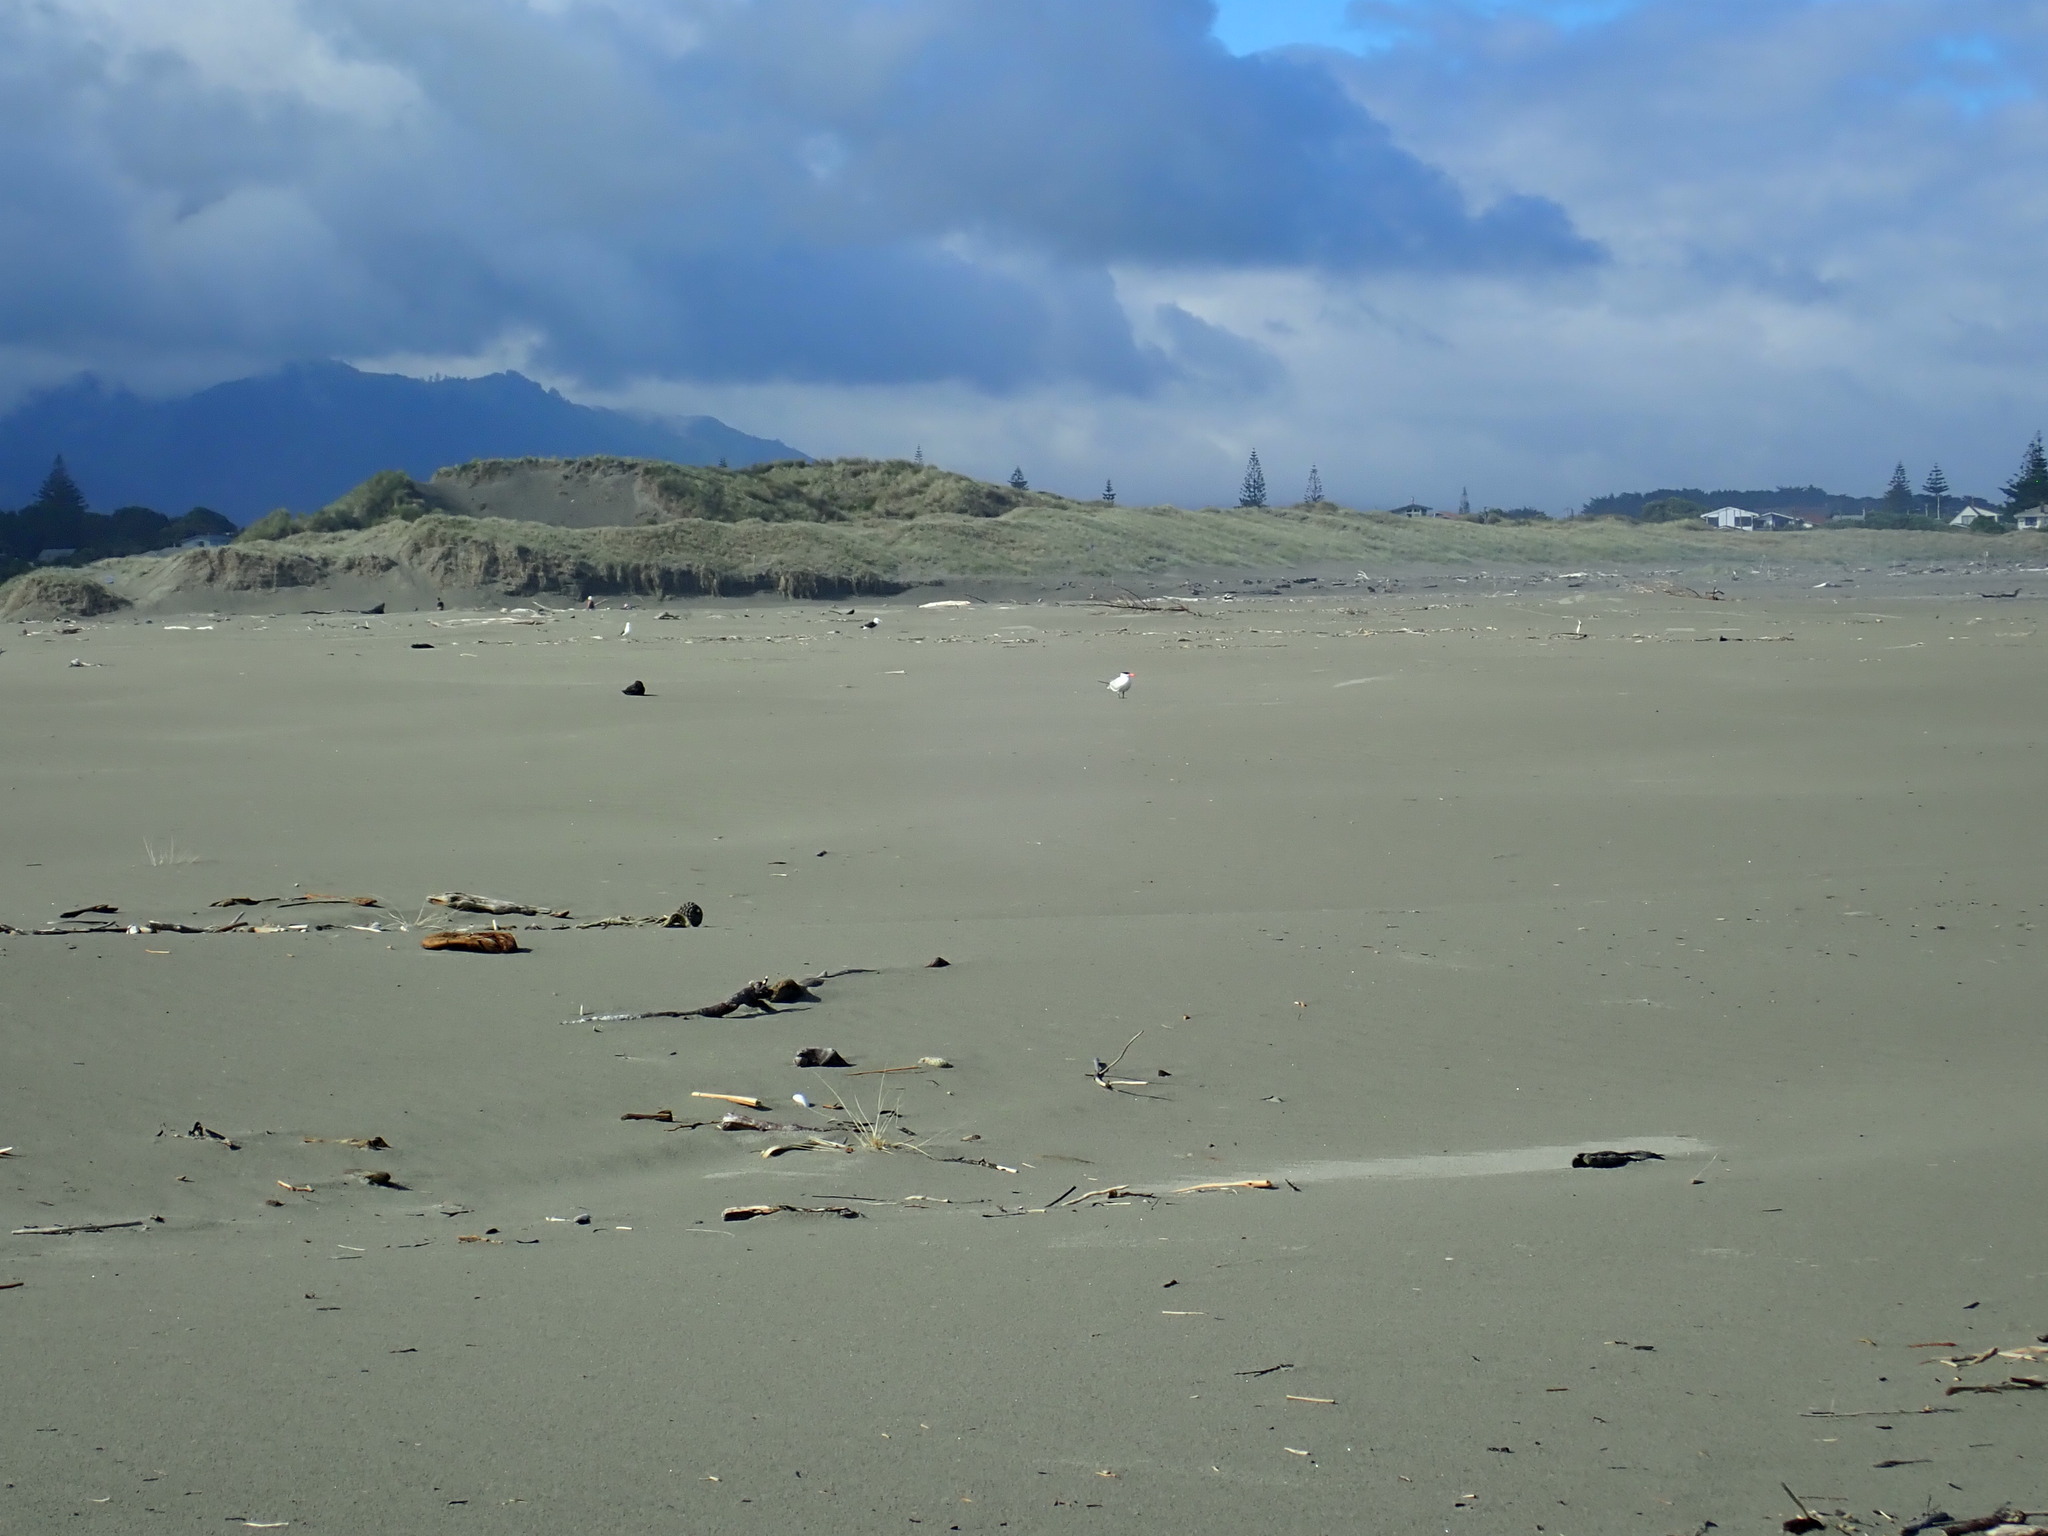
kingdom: Animalia
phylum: Chordata
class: Aves
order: Charadriiformes
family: Laridae
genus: Hydroprogne
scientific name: Hydroprogne caspia
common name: Caspian tern
